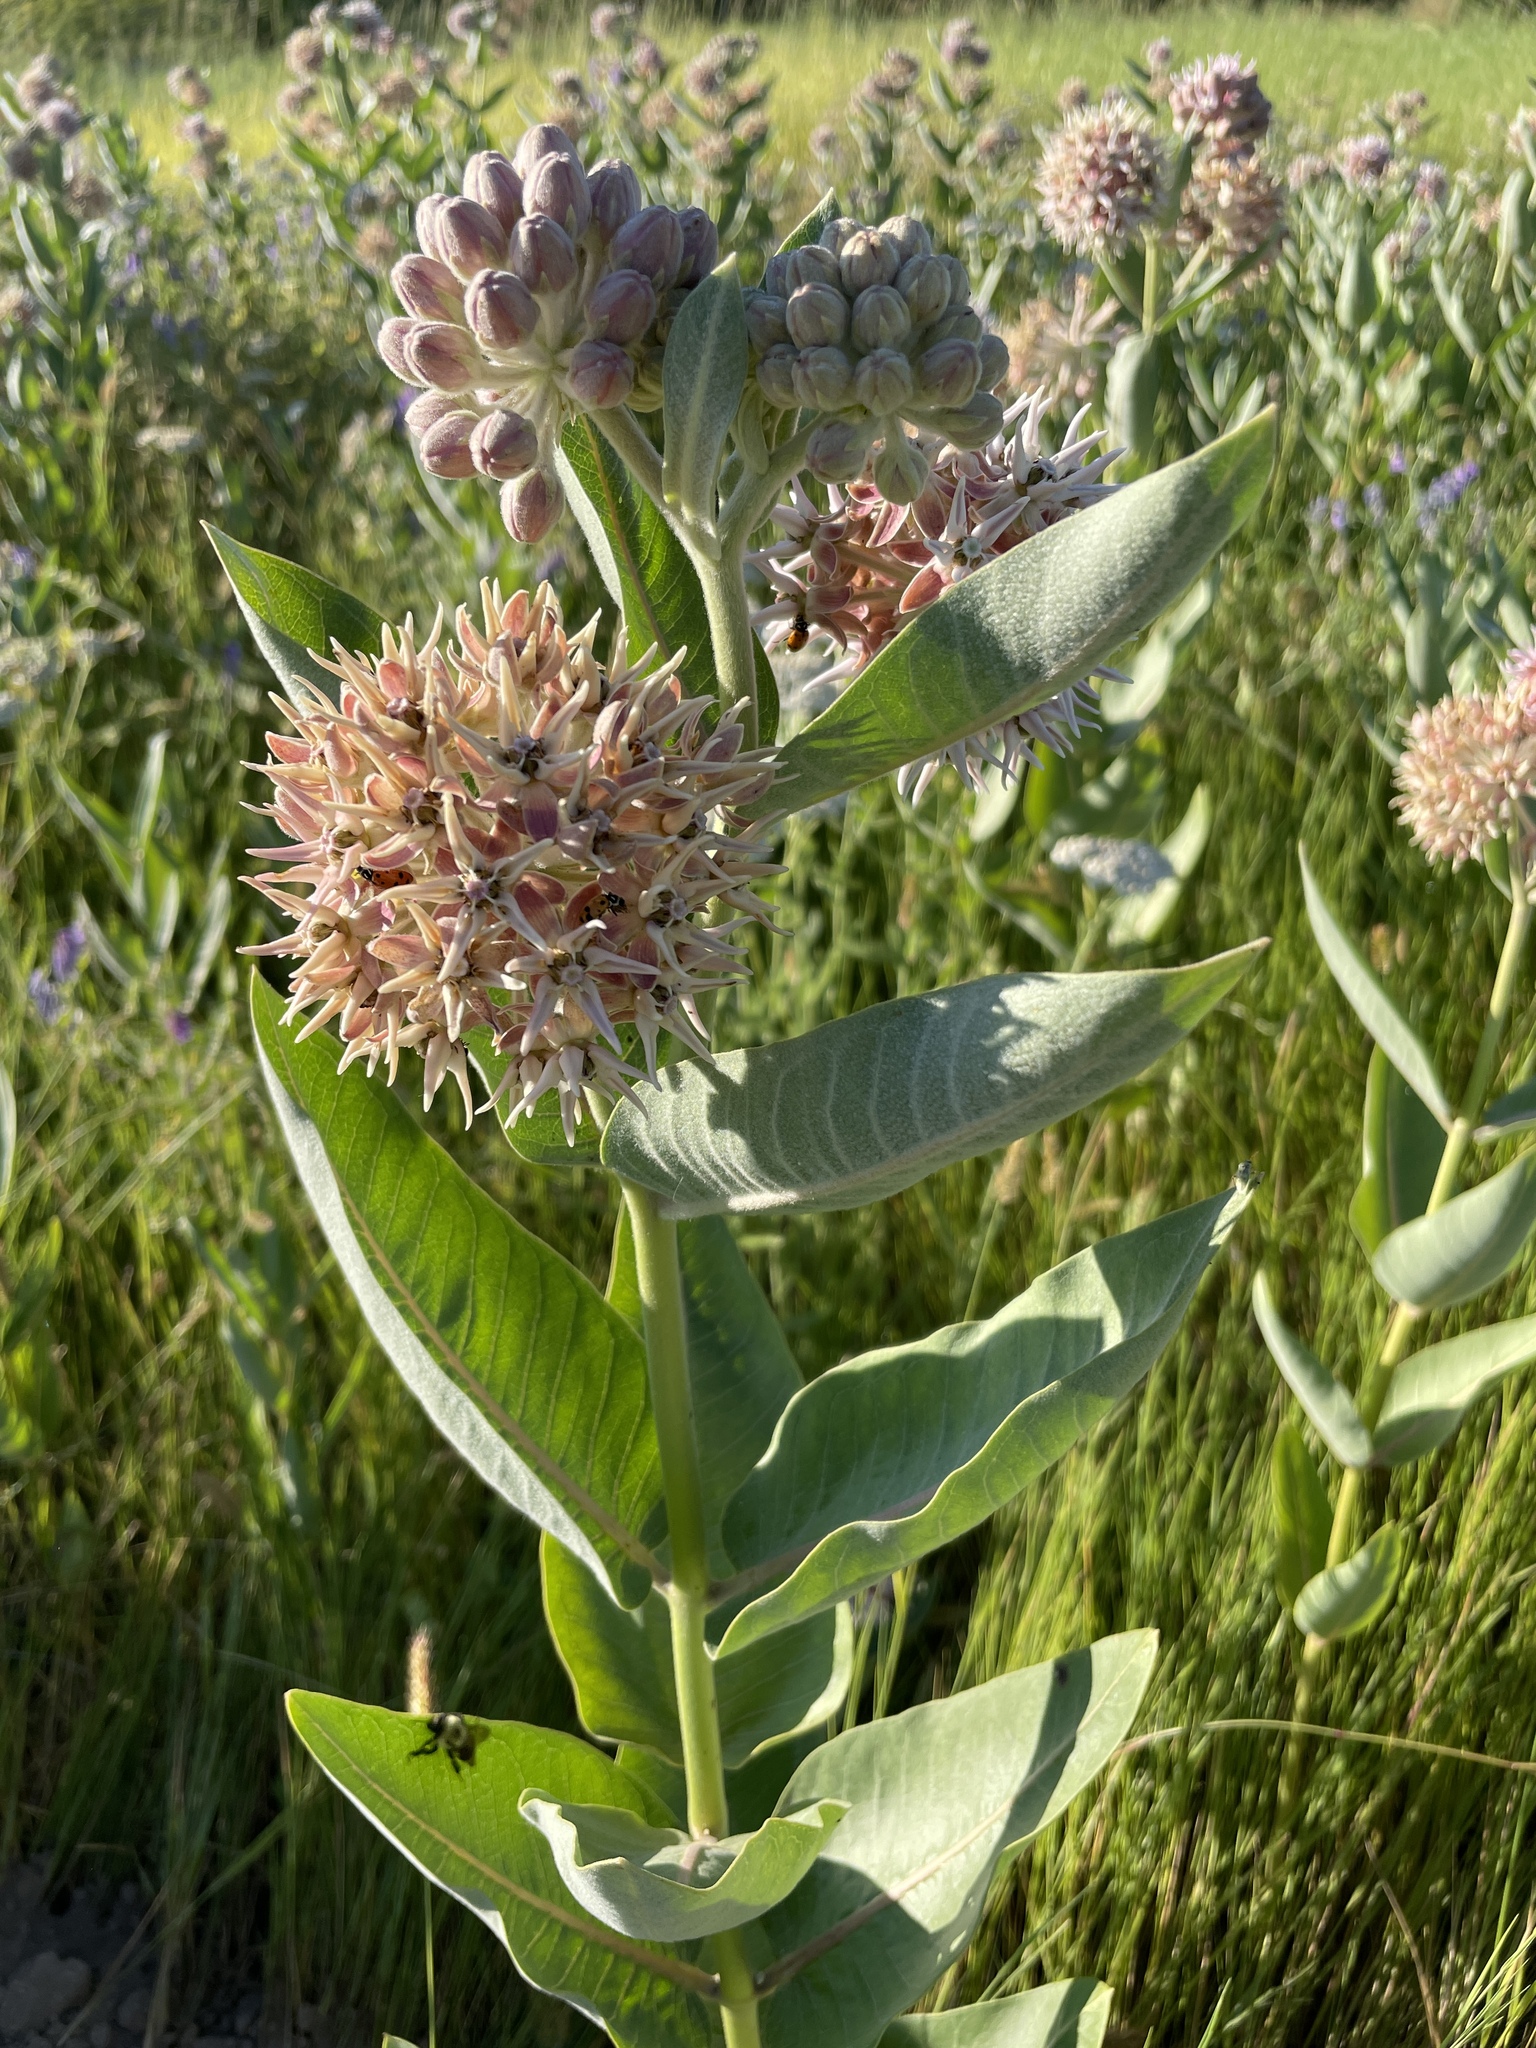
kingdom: Plantae
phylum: Tracheophyta
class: Magnoliopsida
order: Gentianales
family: Apocynaceae
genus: Asclepias
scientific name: Asclepias speciosa
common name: Showy milkweed
